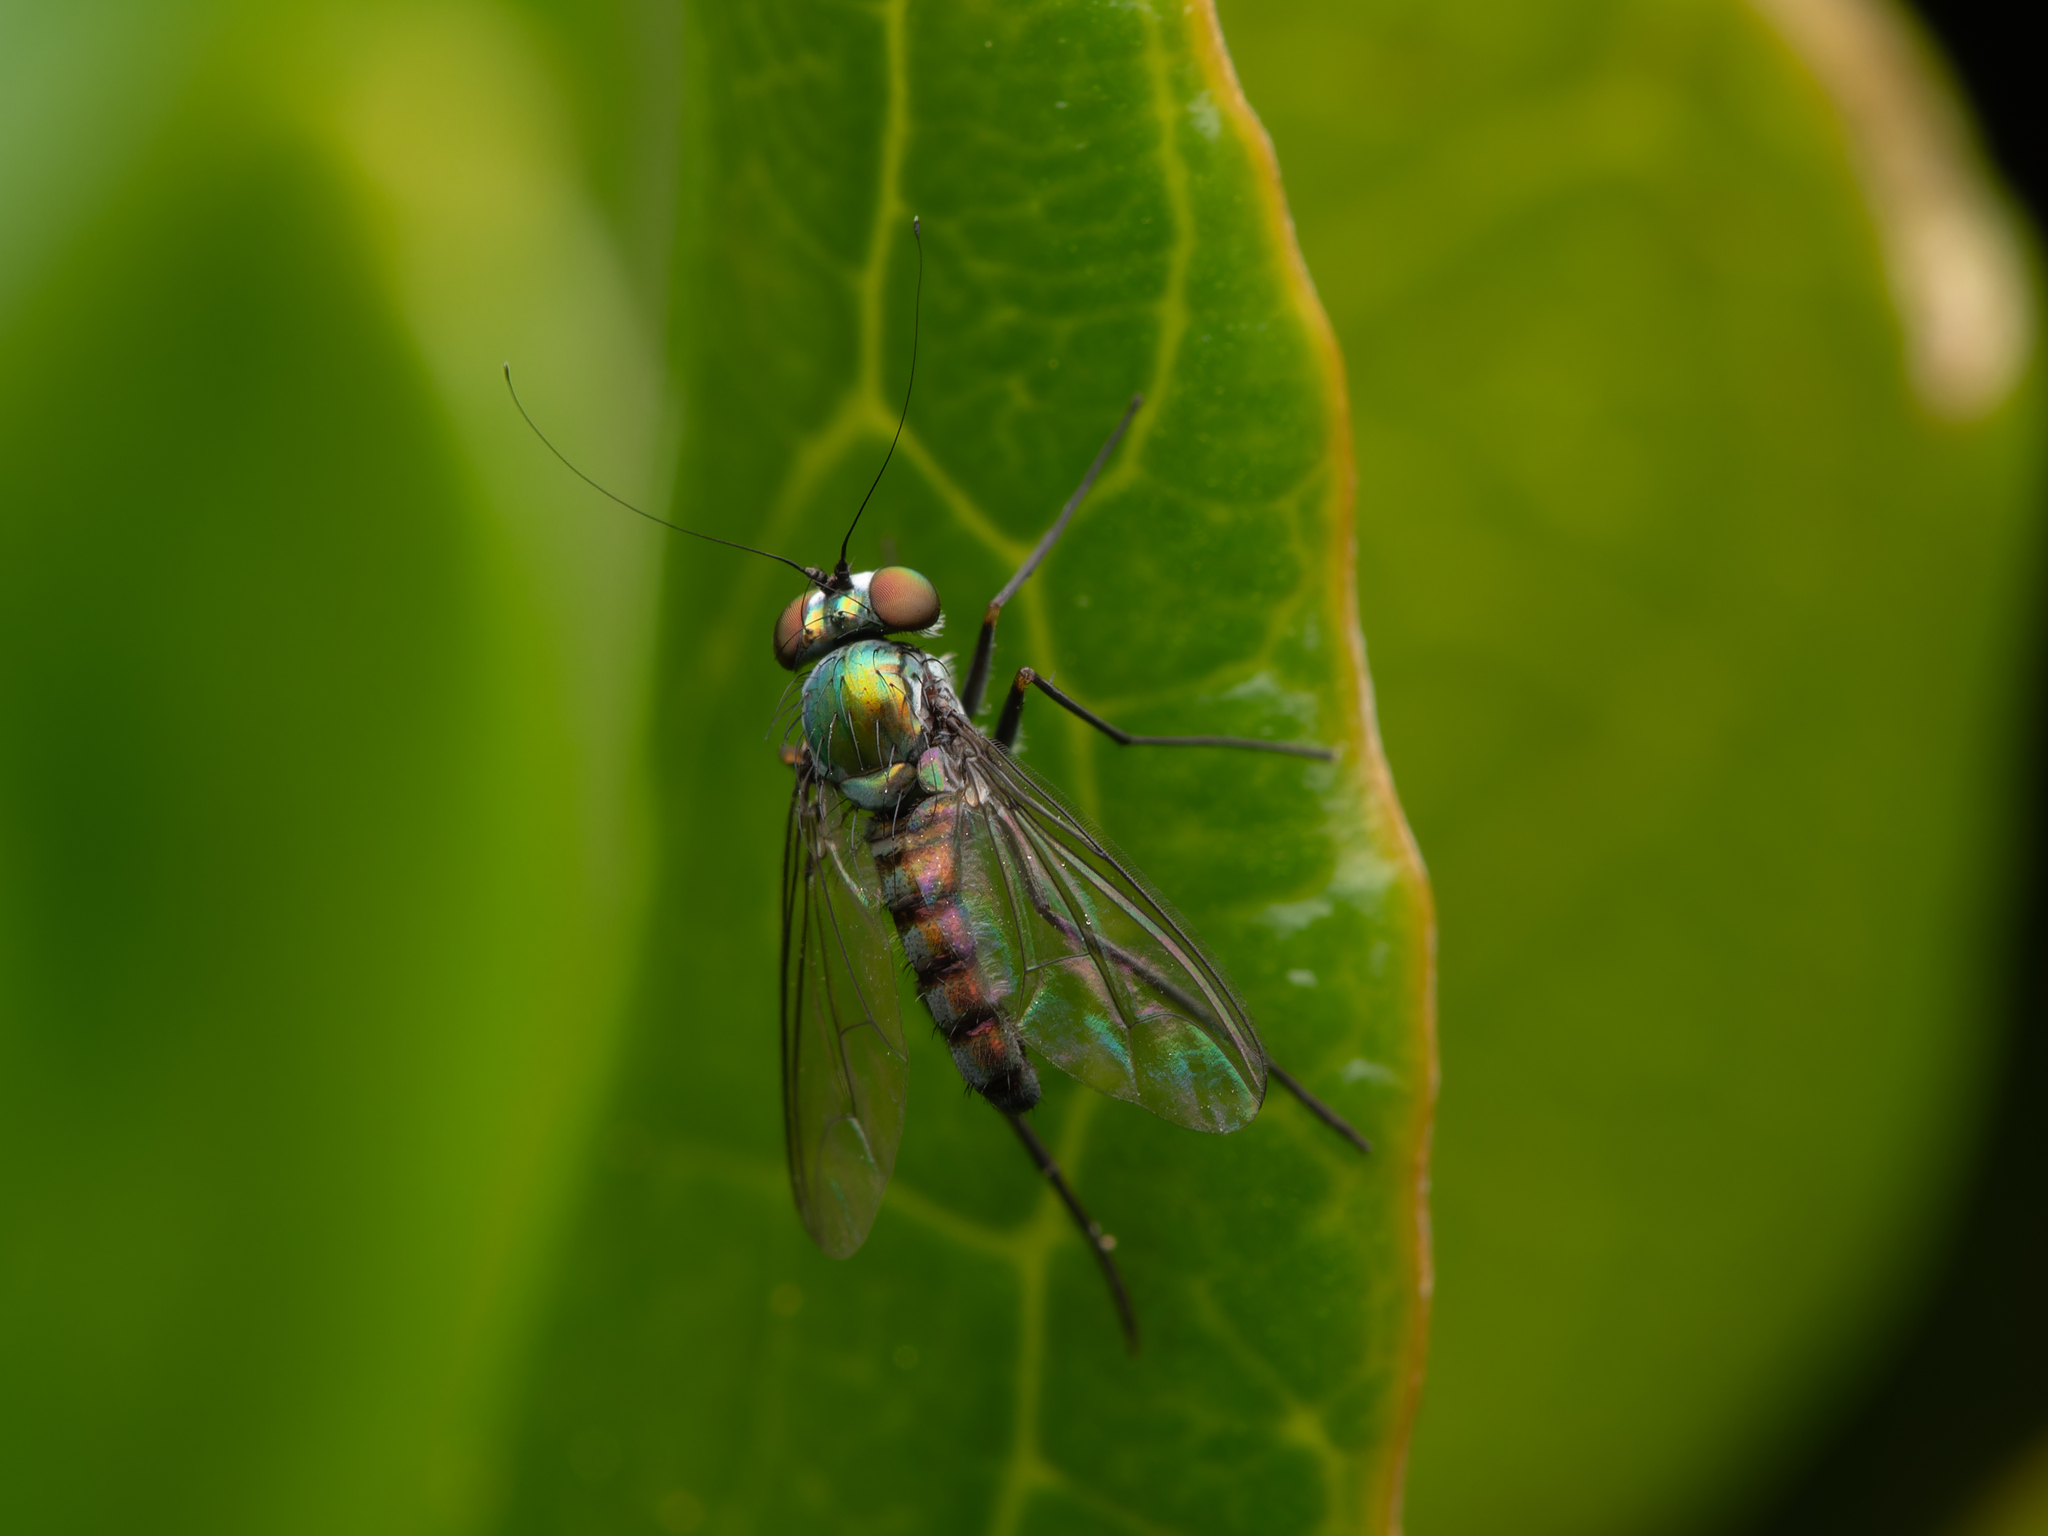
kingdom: Animalia
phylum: Arthropoda
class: Insecta
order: Diptera
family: Dolichopodidae
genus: Parentia
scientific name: Parentia mobile
